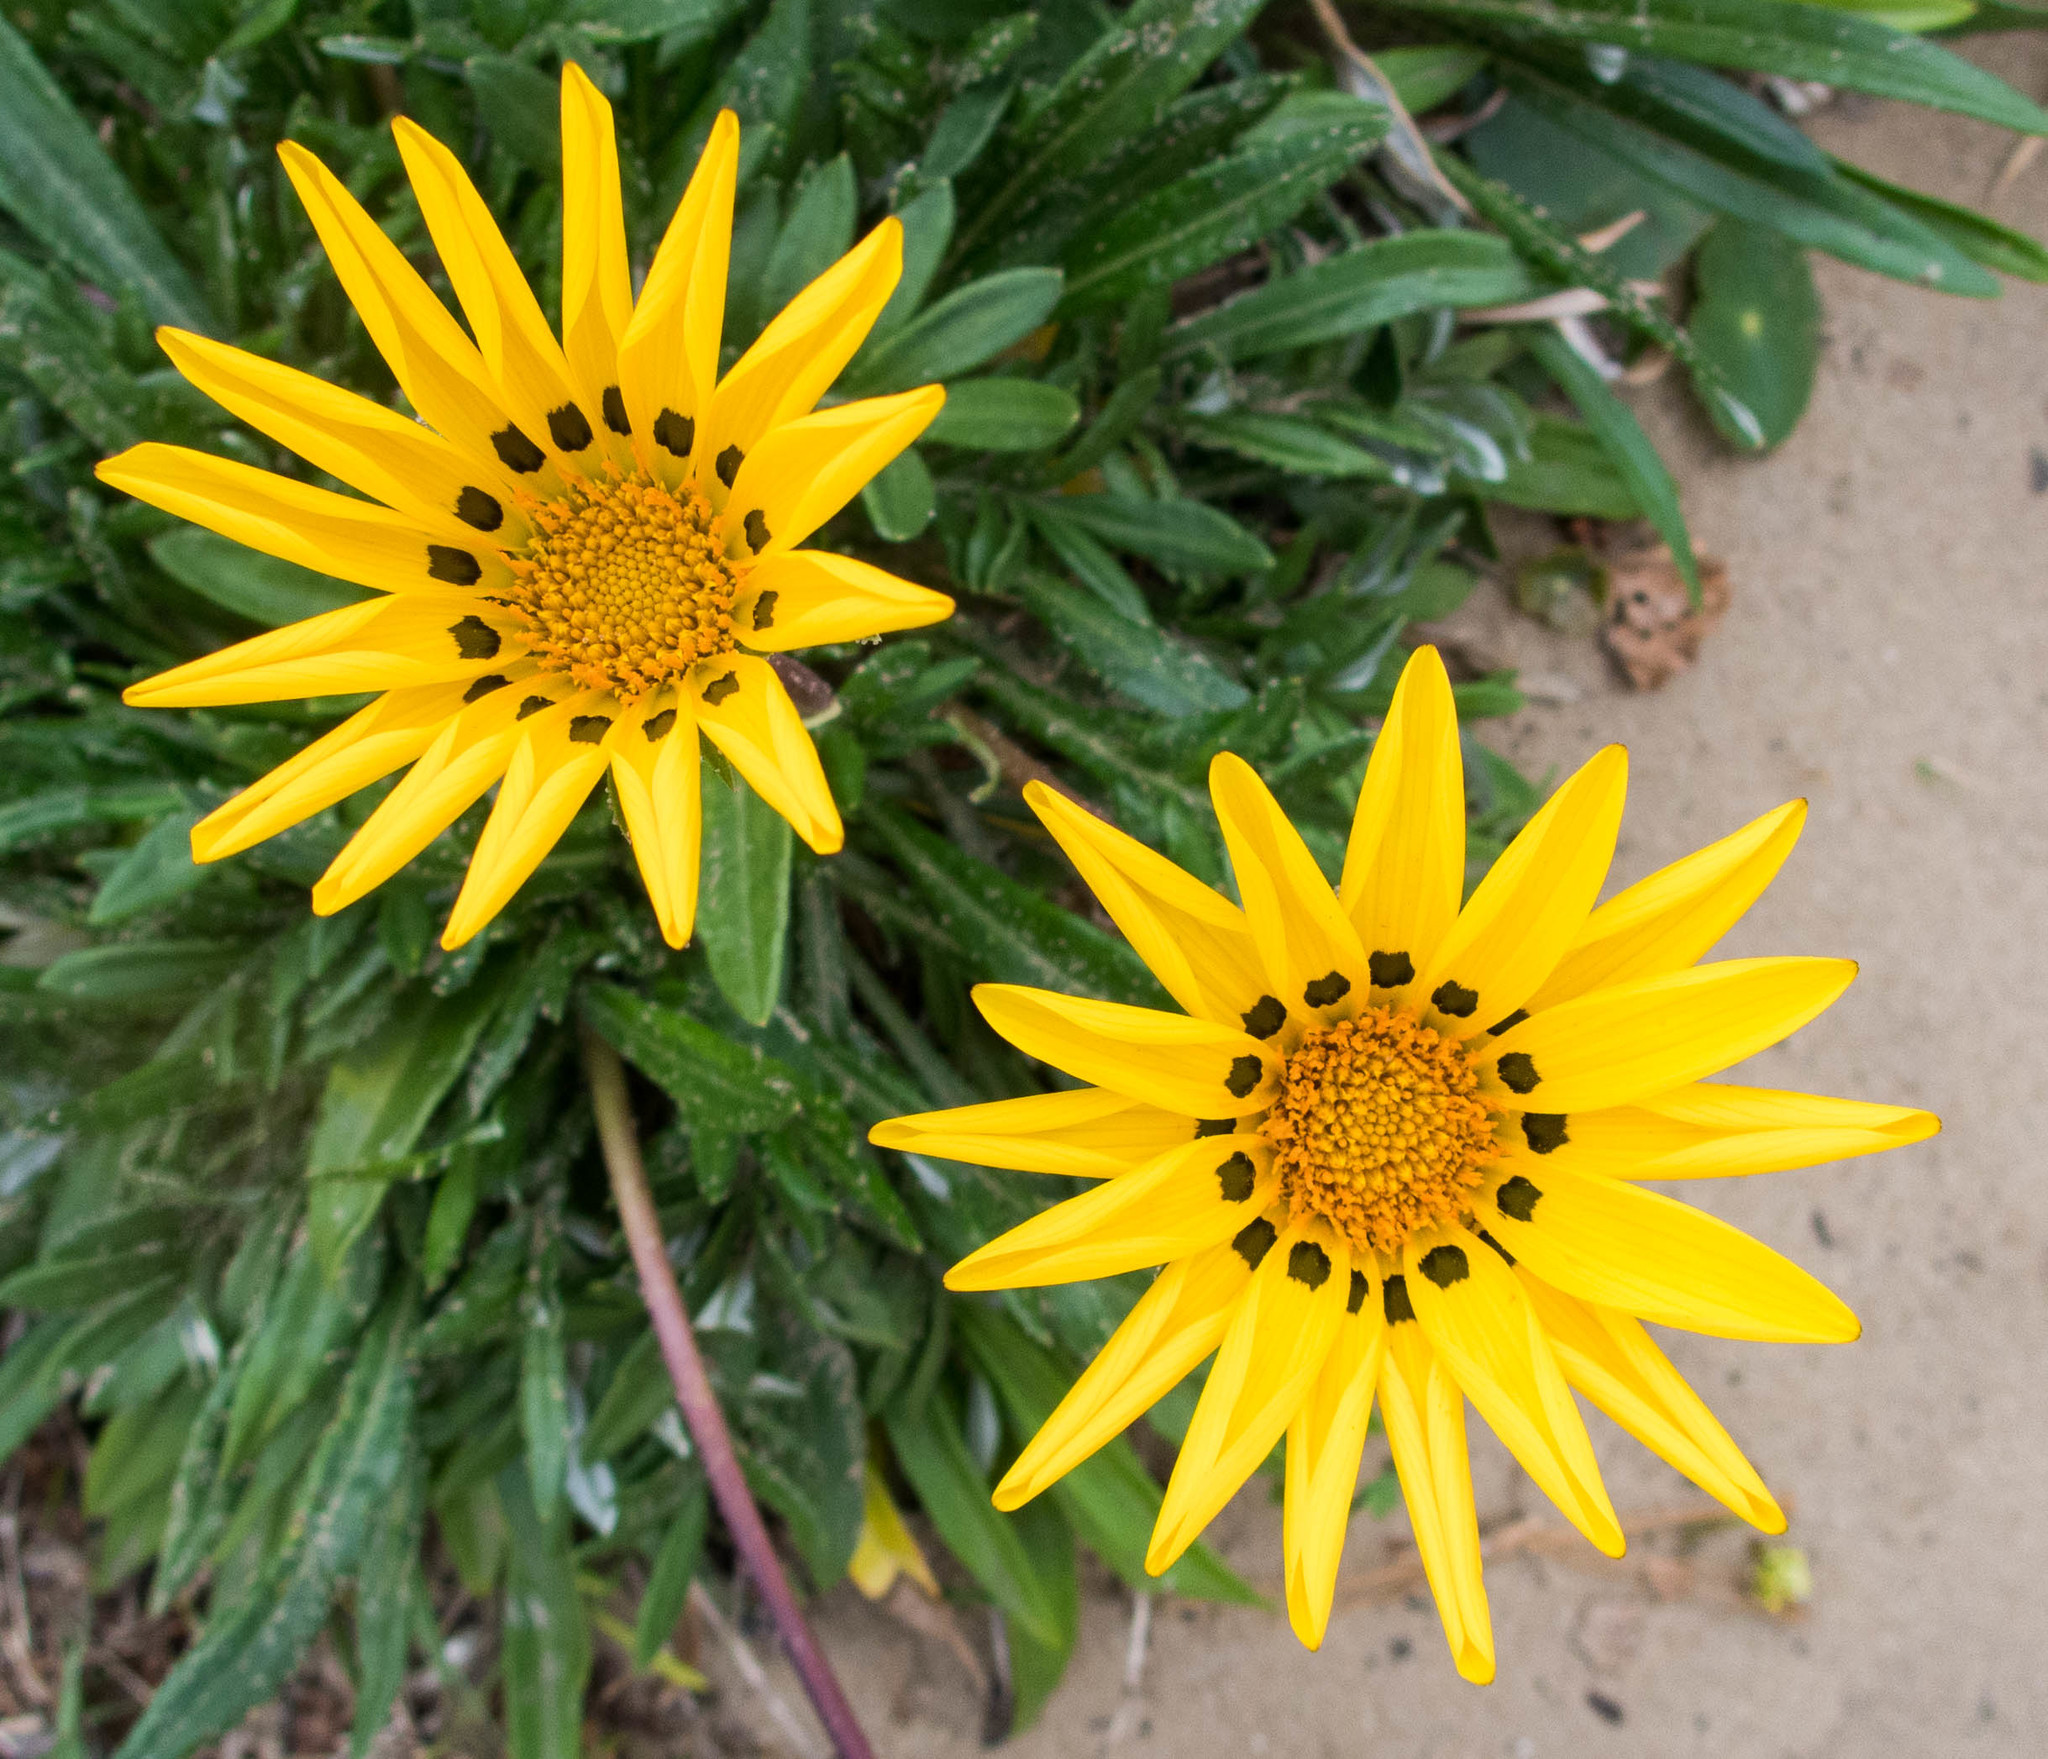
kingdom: Plantae
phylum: Tracheophyta
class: Magnoliopsida
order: Asterales
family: Asteraceae
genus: Gazania
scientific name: Gazania splendens
